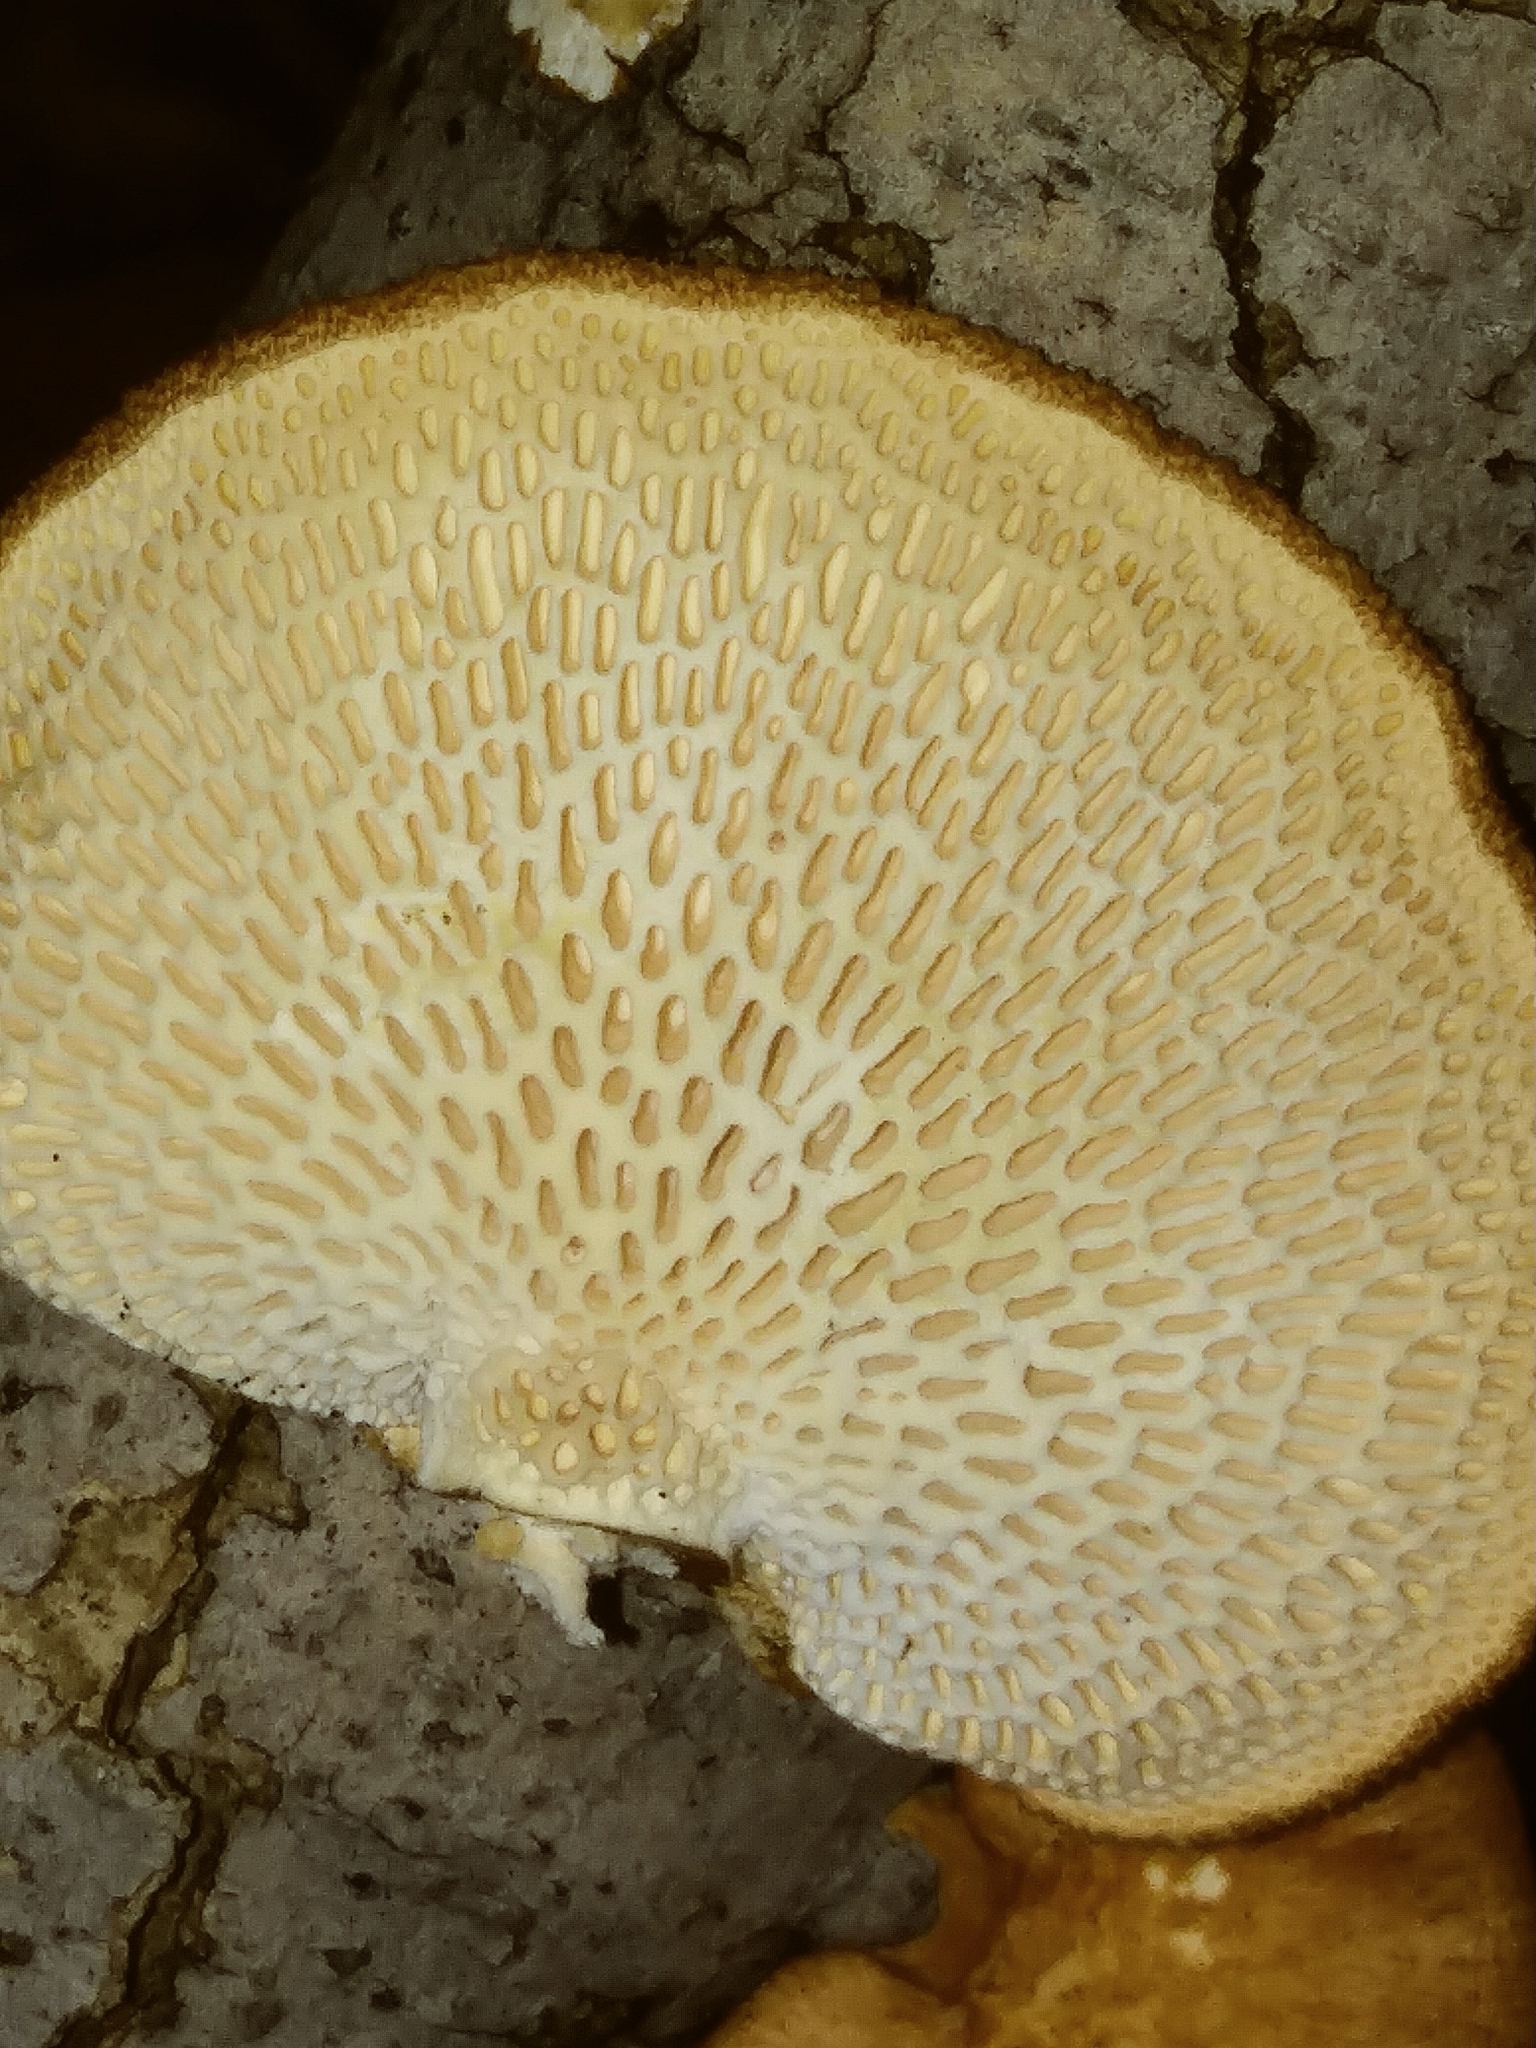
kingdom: Fungi
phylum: Basidiomycota
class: Agaricomycetes
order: Polyporales
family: Polyporaceae
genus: Neofavolus
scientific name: Neofavolus alveolaris
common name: Hexagonal-pored polypore
